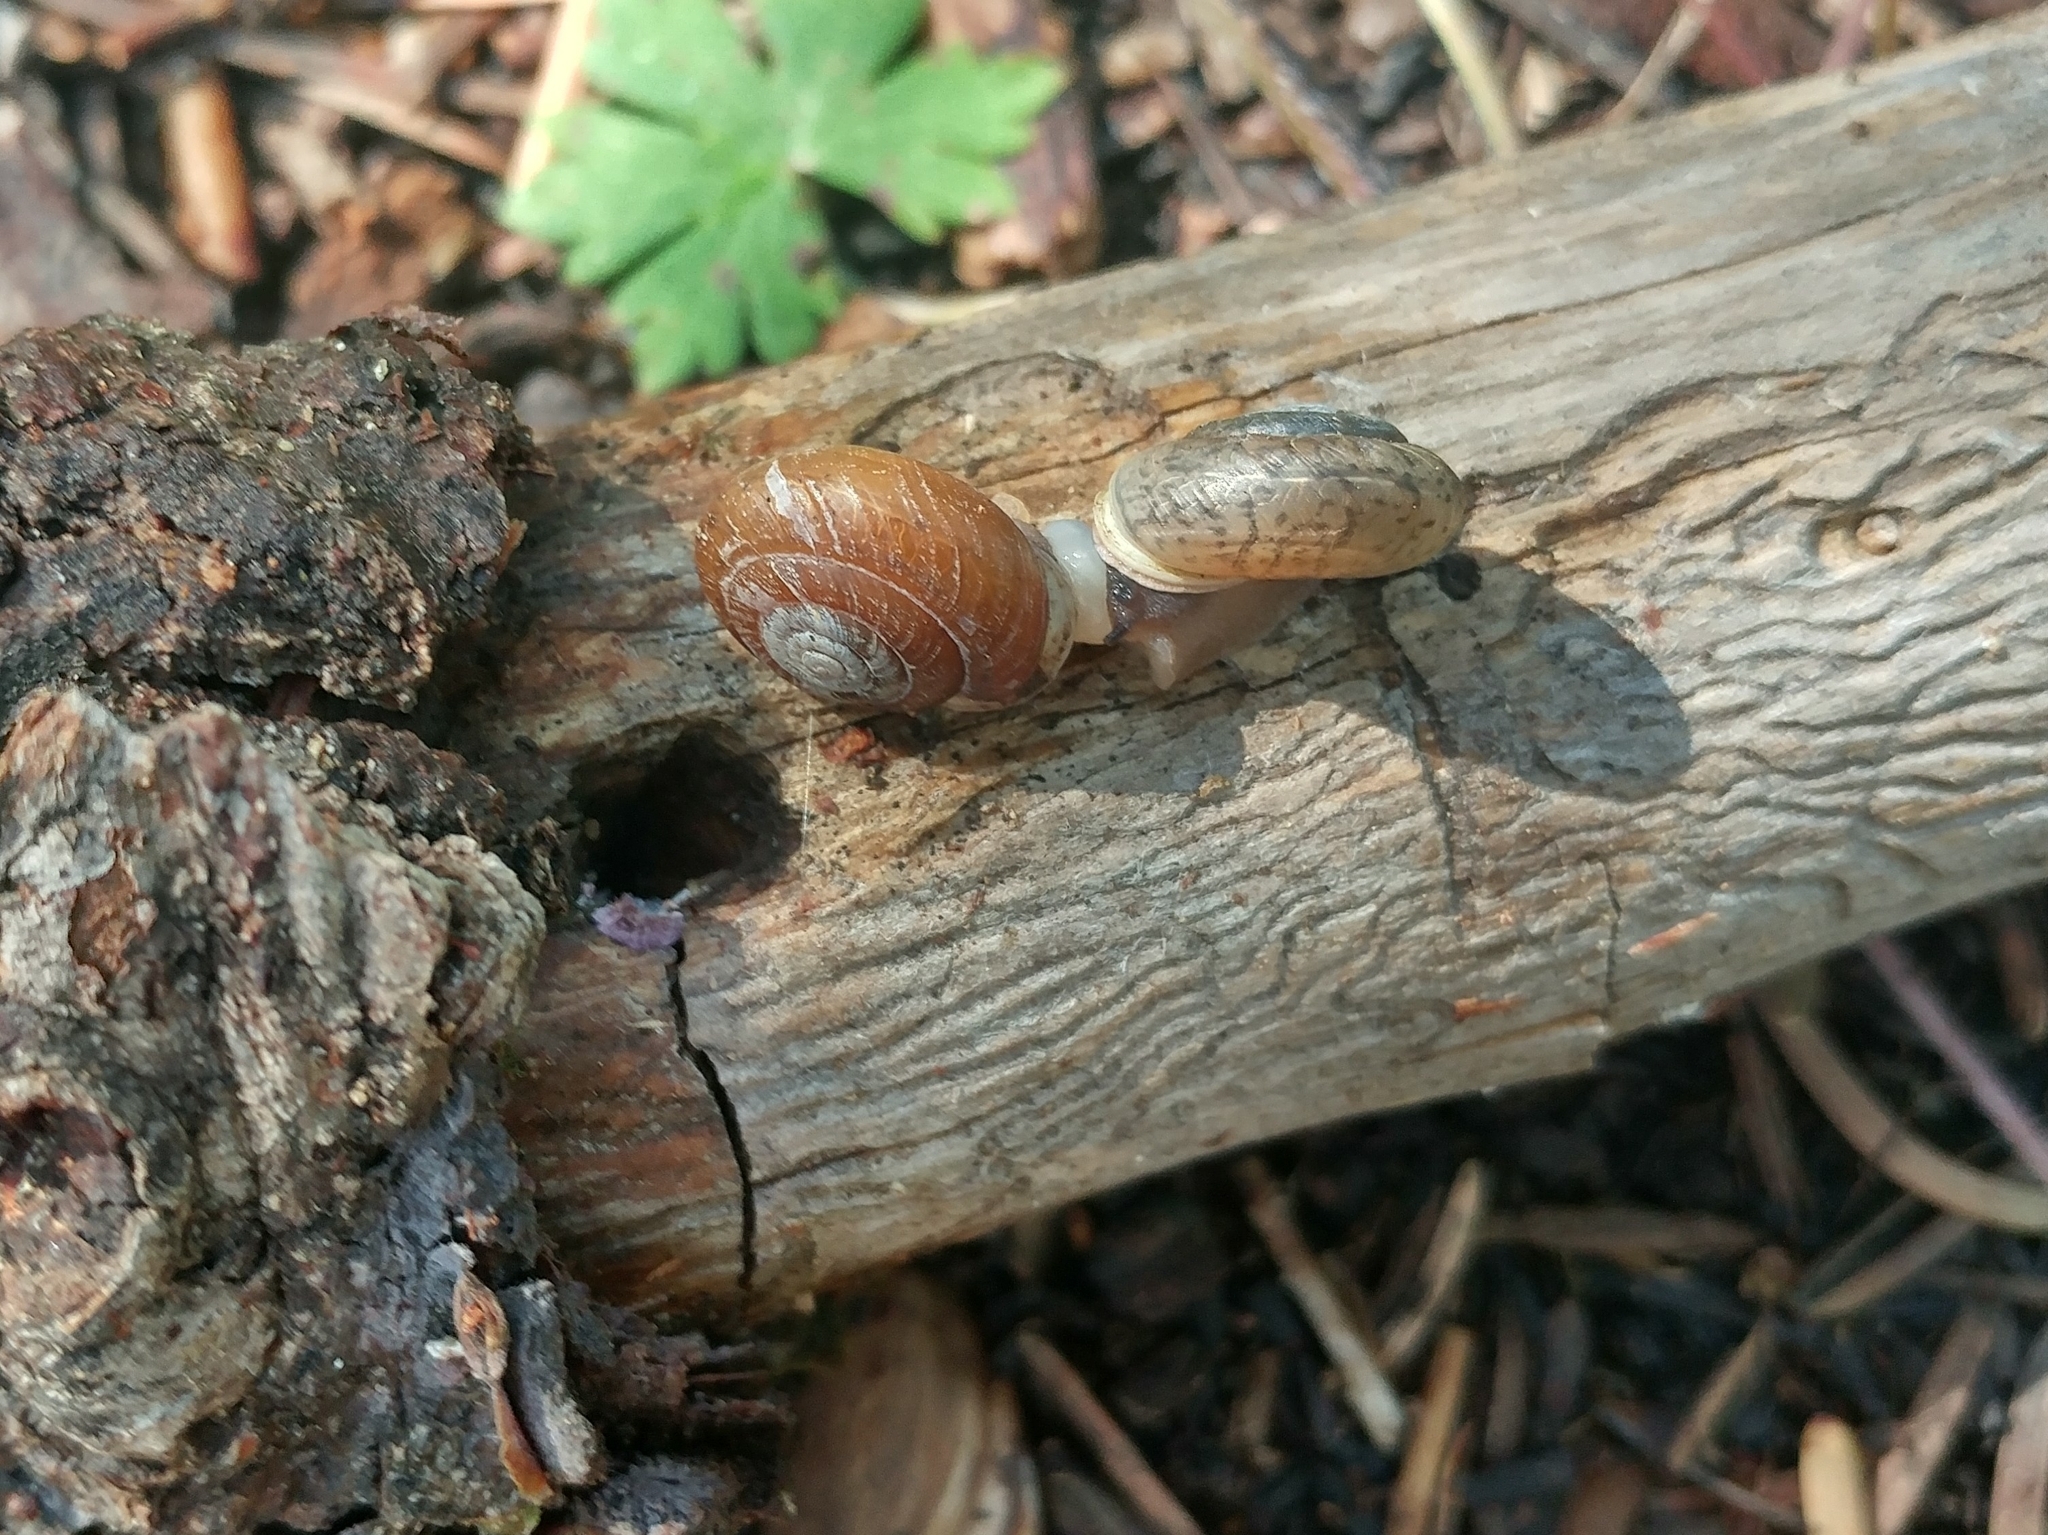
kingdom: Animalia
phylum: Mollusca
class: Gastropoda
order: Stylommatophora
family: Polygyridae
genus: Ashmunella
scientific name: Ashmunella rhyssa
